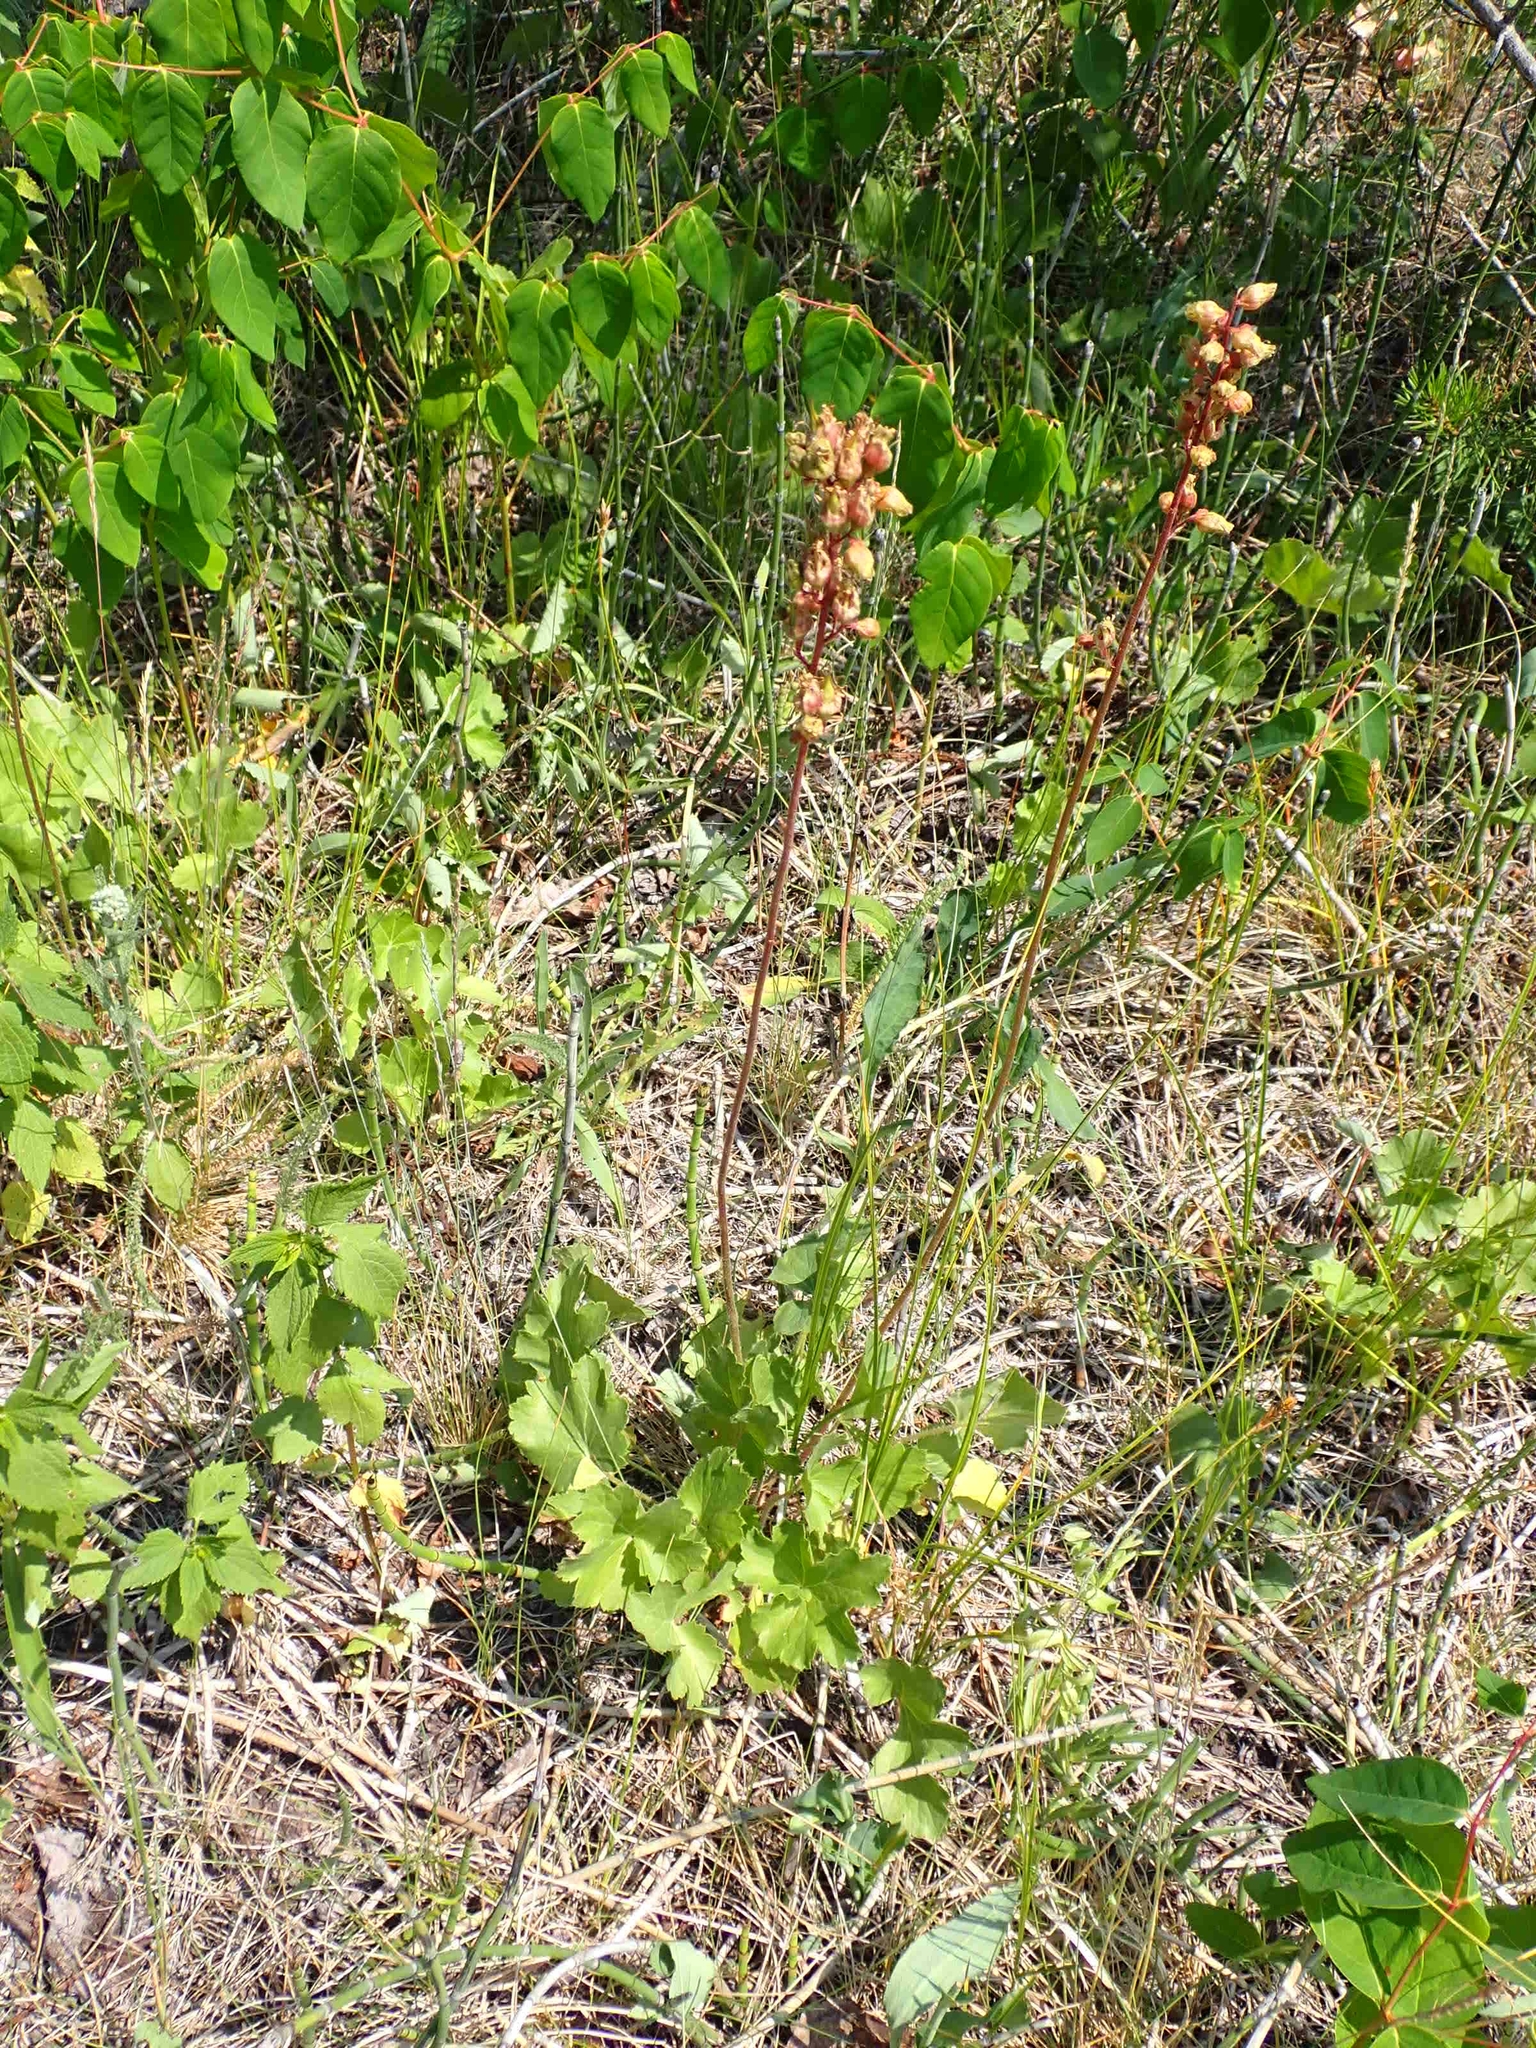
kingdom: Plantae
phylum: Tracheophyta
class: Magnoliopsida
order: Saxifragales
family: Saxifragaceae
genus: Heuchera
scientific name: Heuchera richardsonii
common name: Richardson's alumroot
